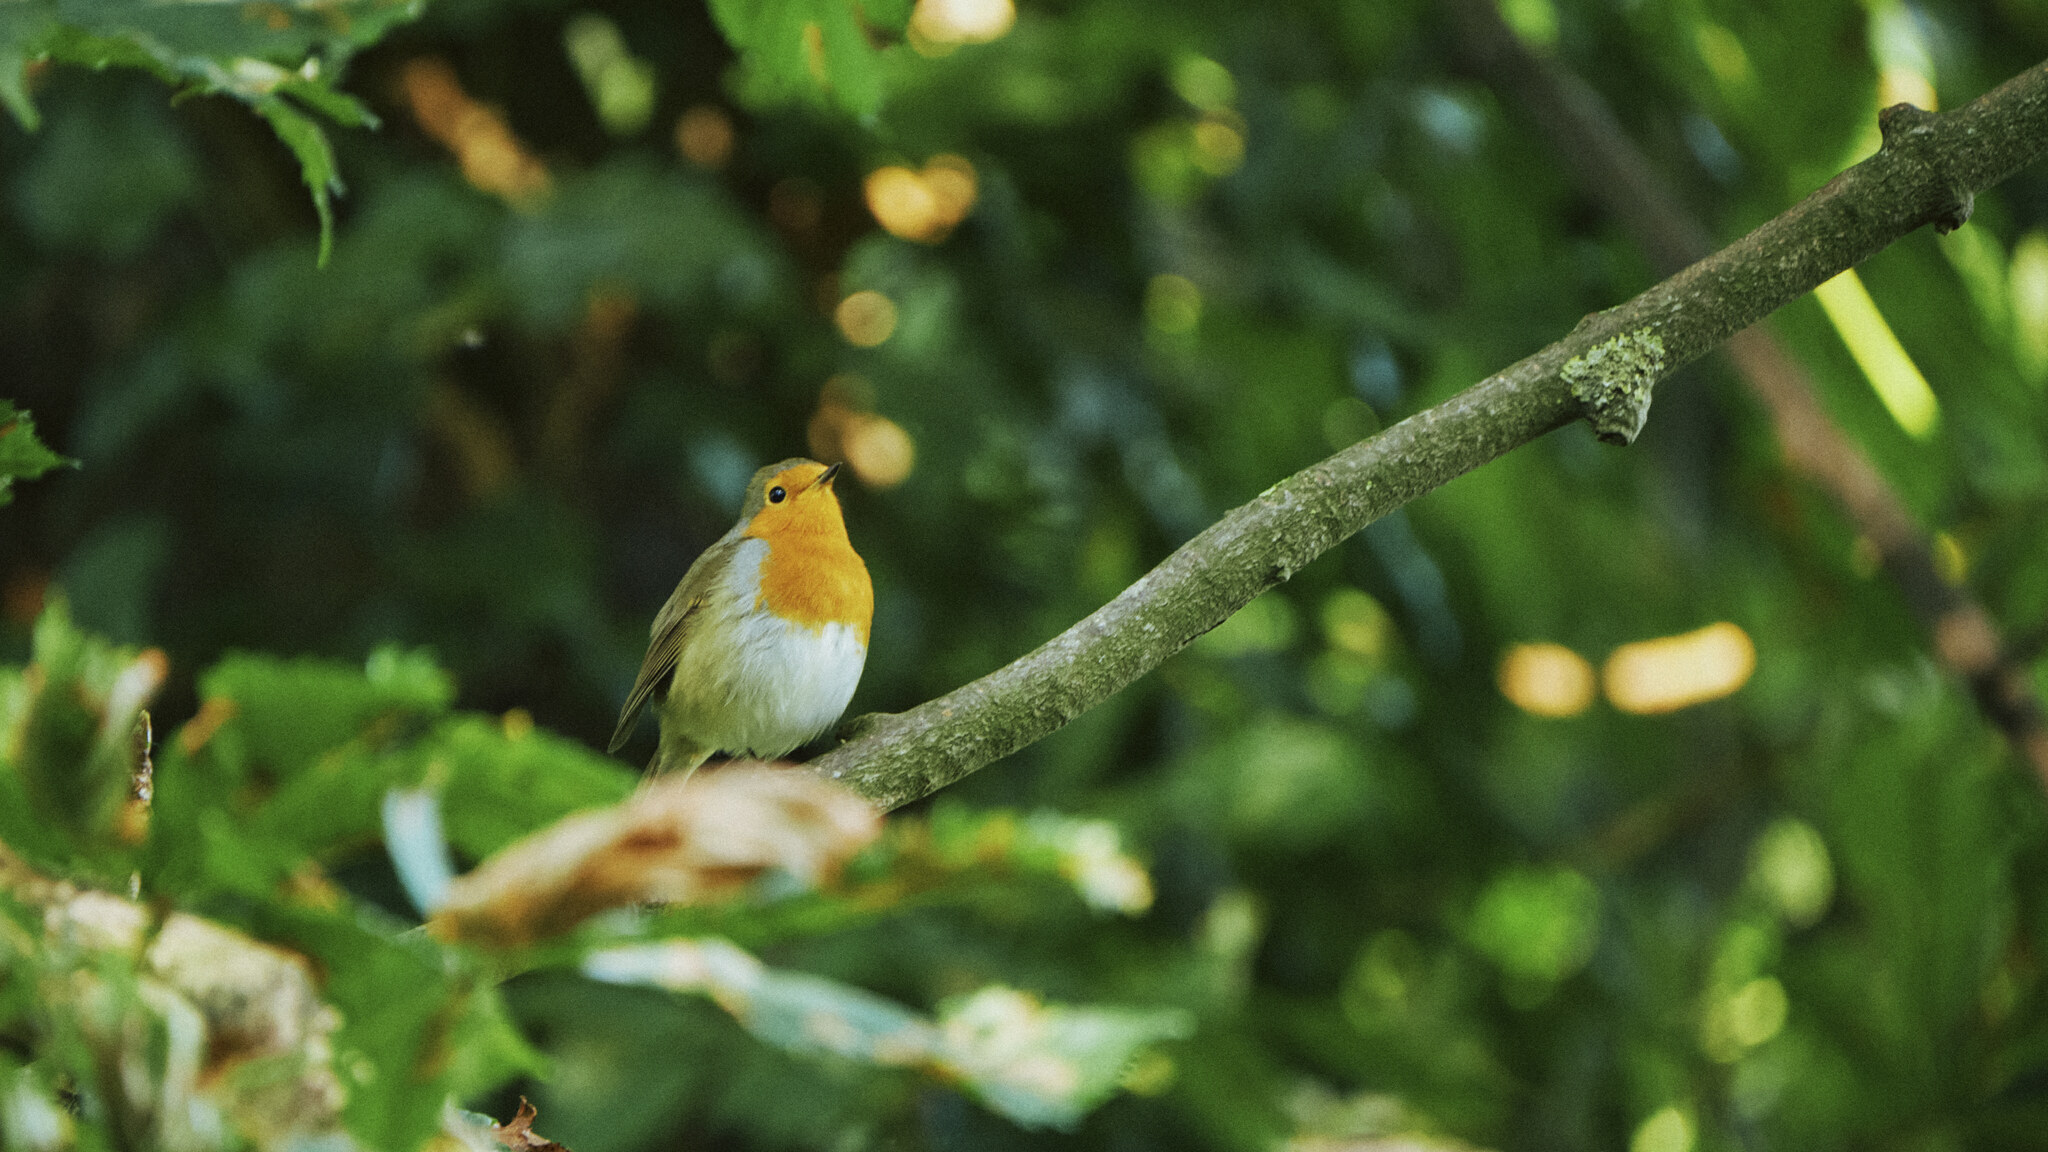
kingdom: Animalia
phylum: Chordata
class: Aves
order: Passeriformes
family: Muscicapidae
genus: Erithacus
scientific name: Erithacus rubecula
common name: European robin
